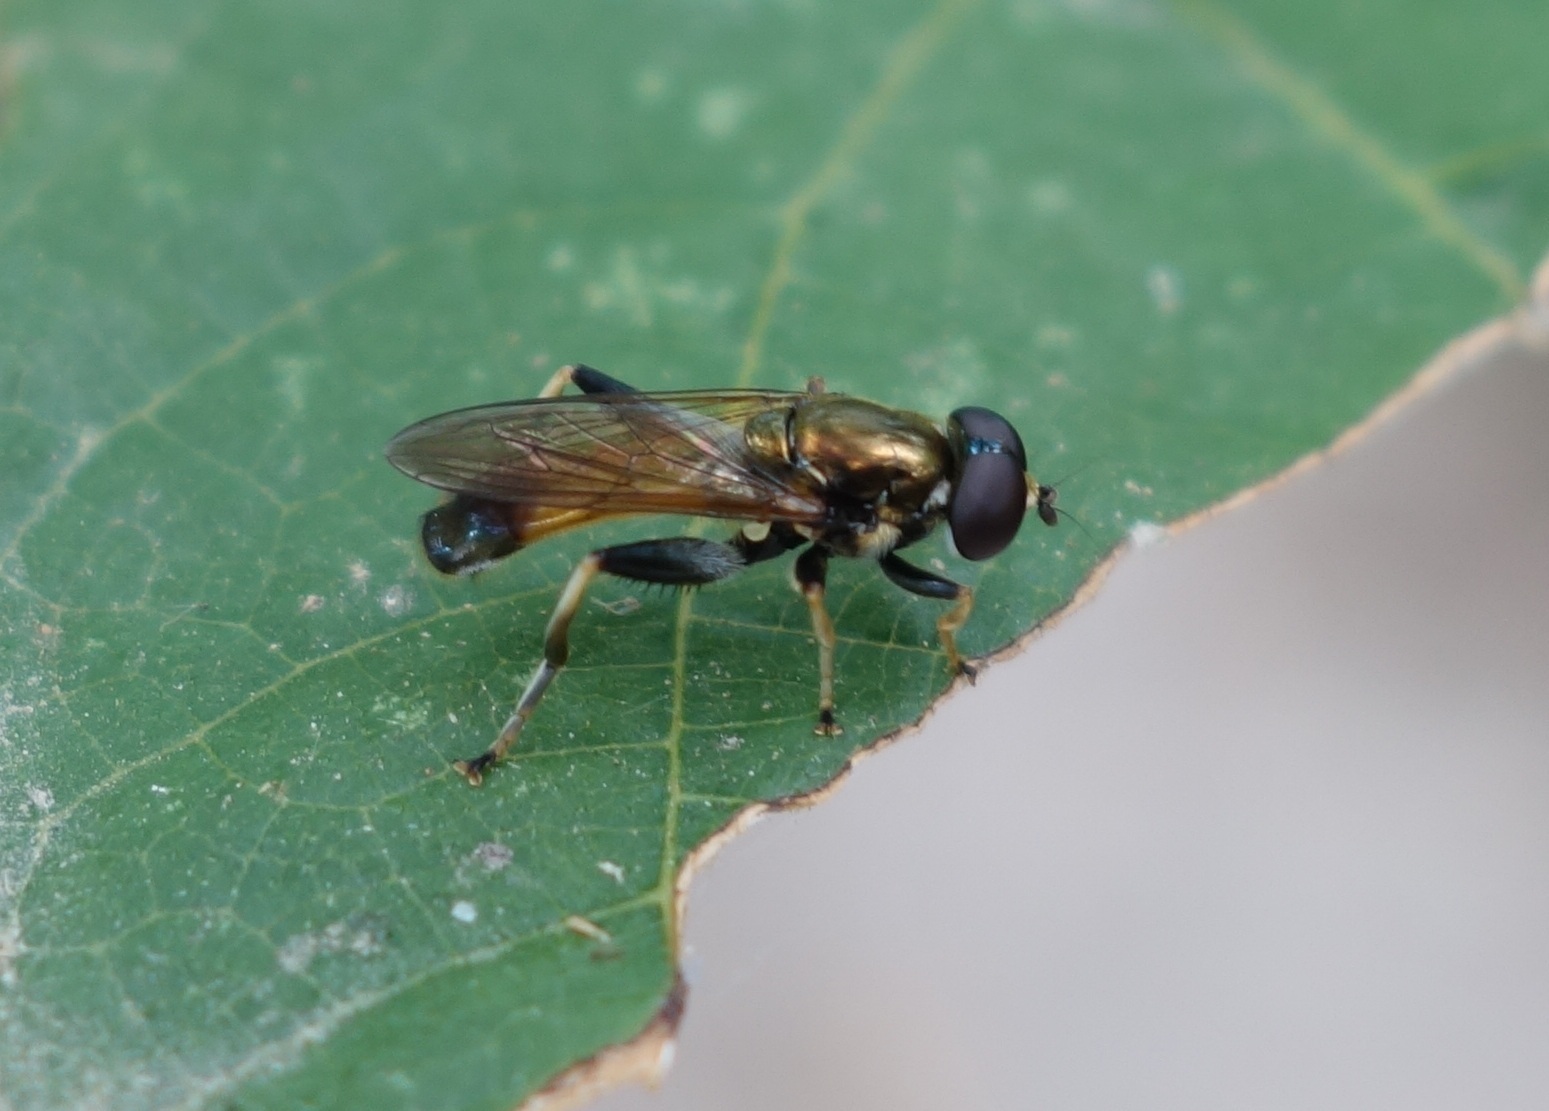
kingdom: Animalia
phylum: Arthropoda
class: Insecta
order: Diptera
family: Syrphidae
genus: Xylota
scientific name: Xylota segnis
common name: Brown-toed forest fly
